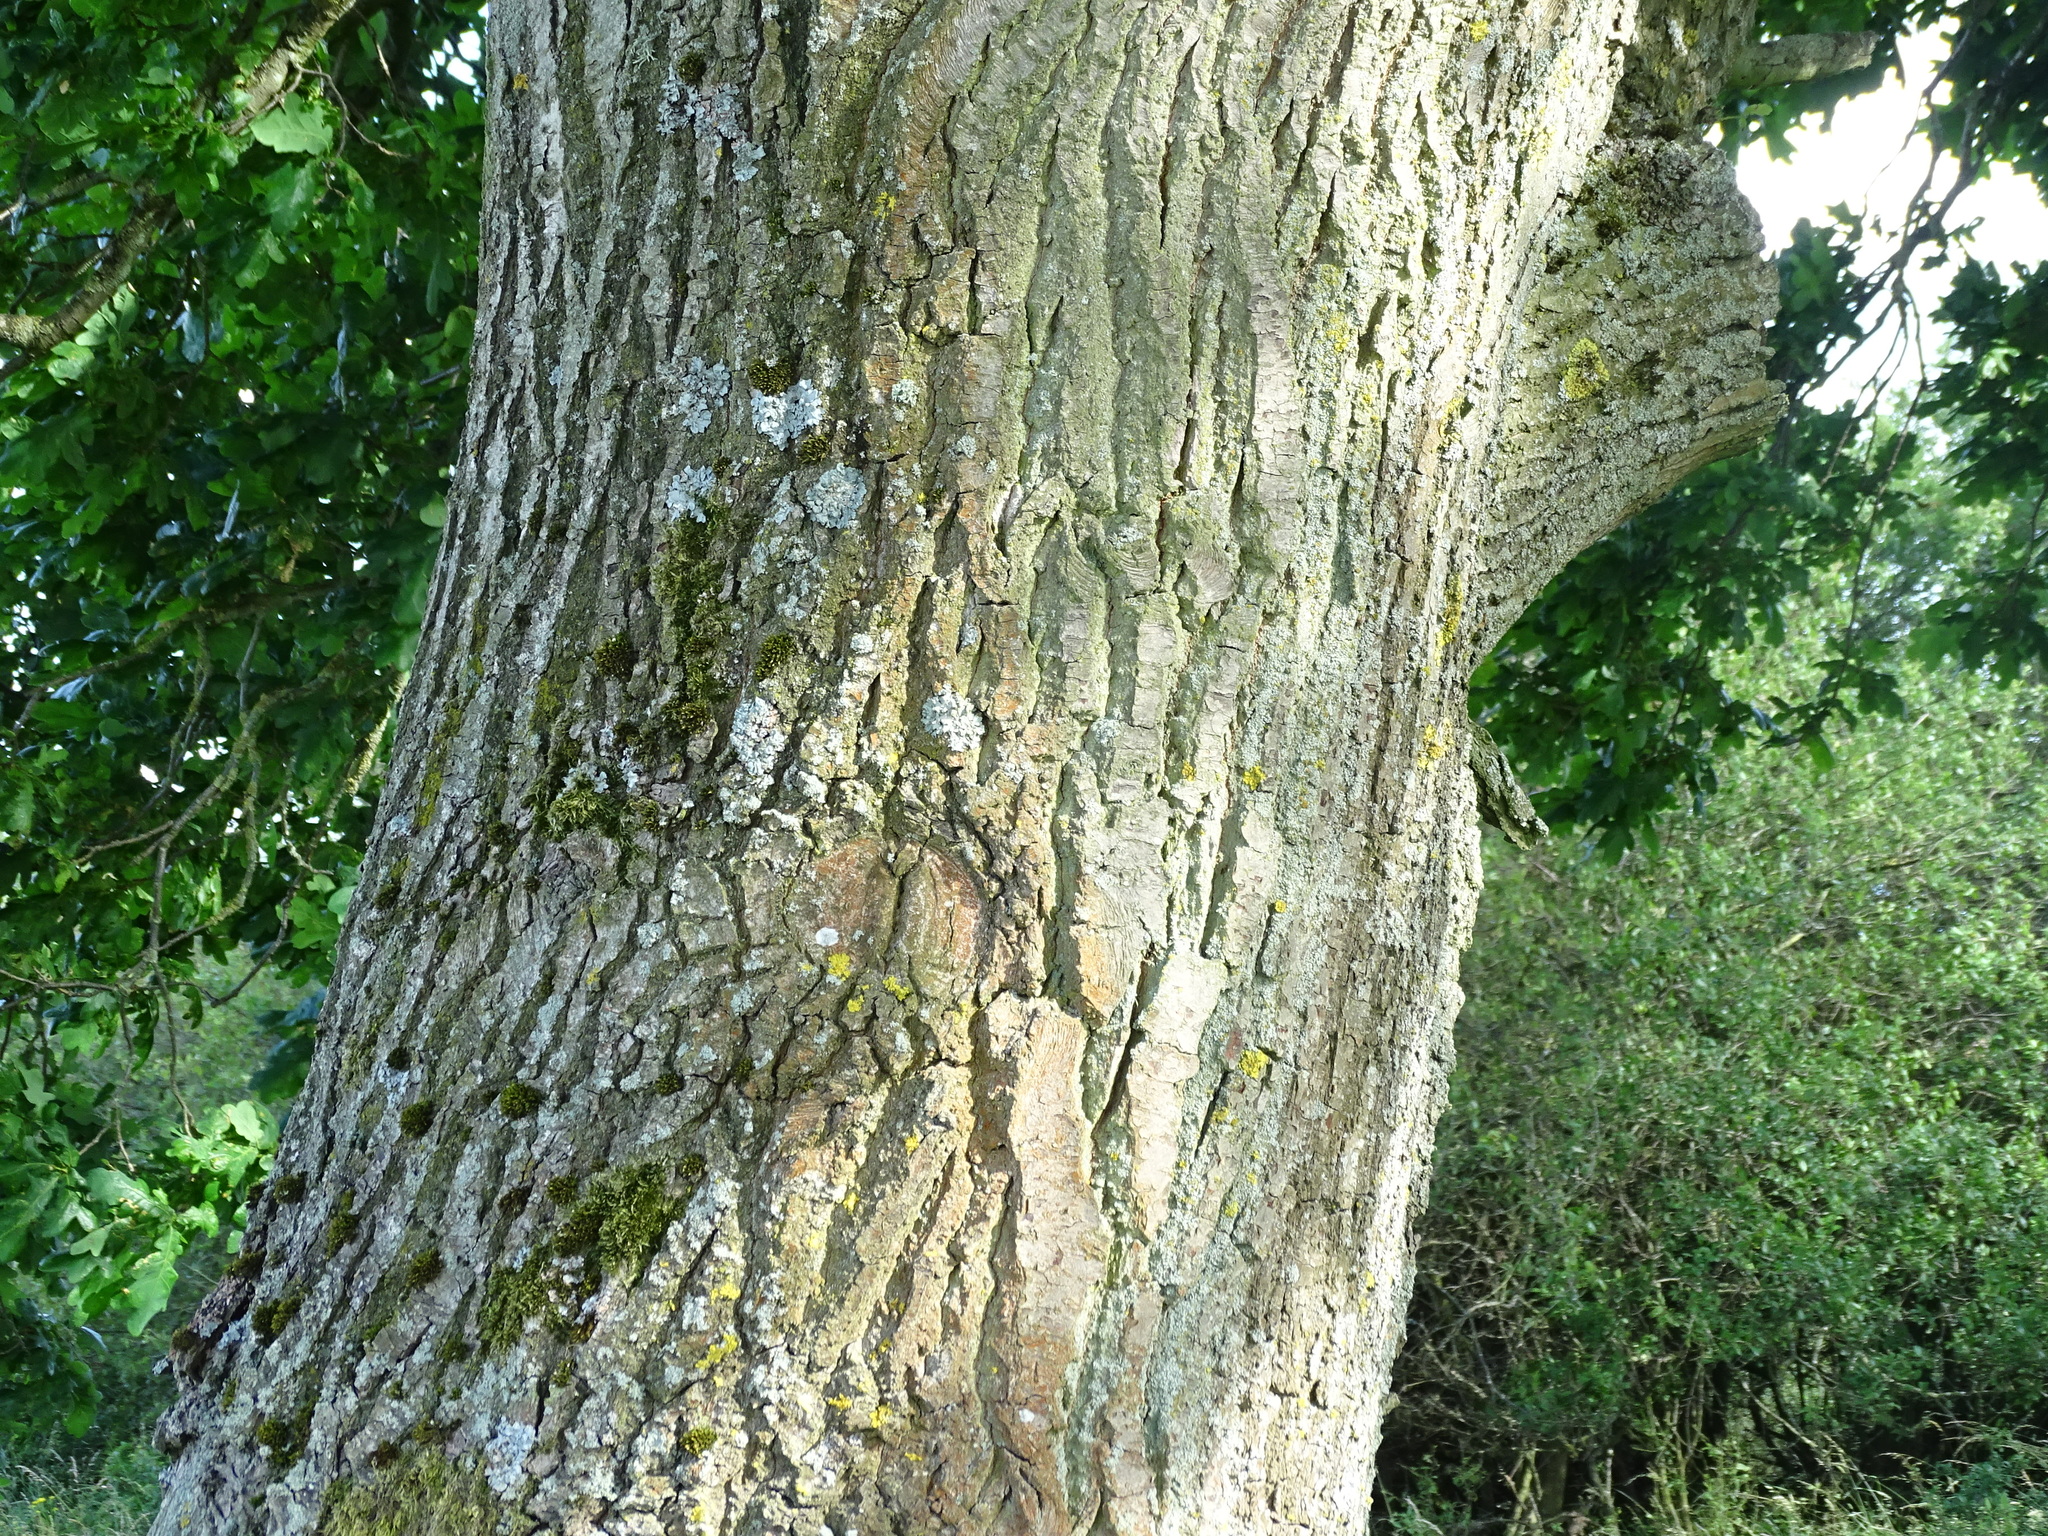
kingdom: Plantae
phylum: Tracheophyta
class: Magnoliopsida
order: Fagales
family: Fagaceae
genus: Quercus
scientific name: Quercus robur
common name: Pedunculate oak
